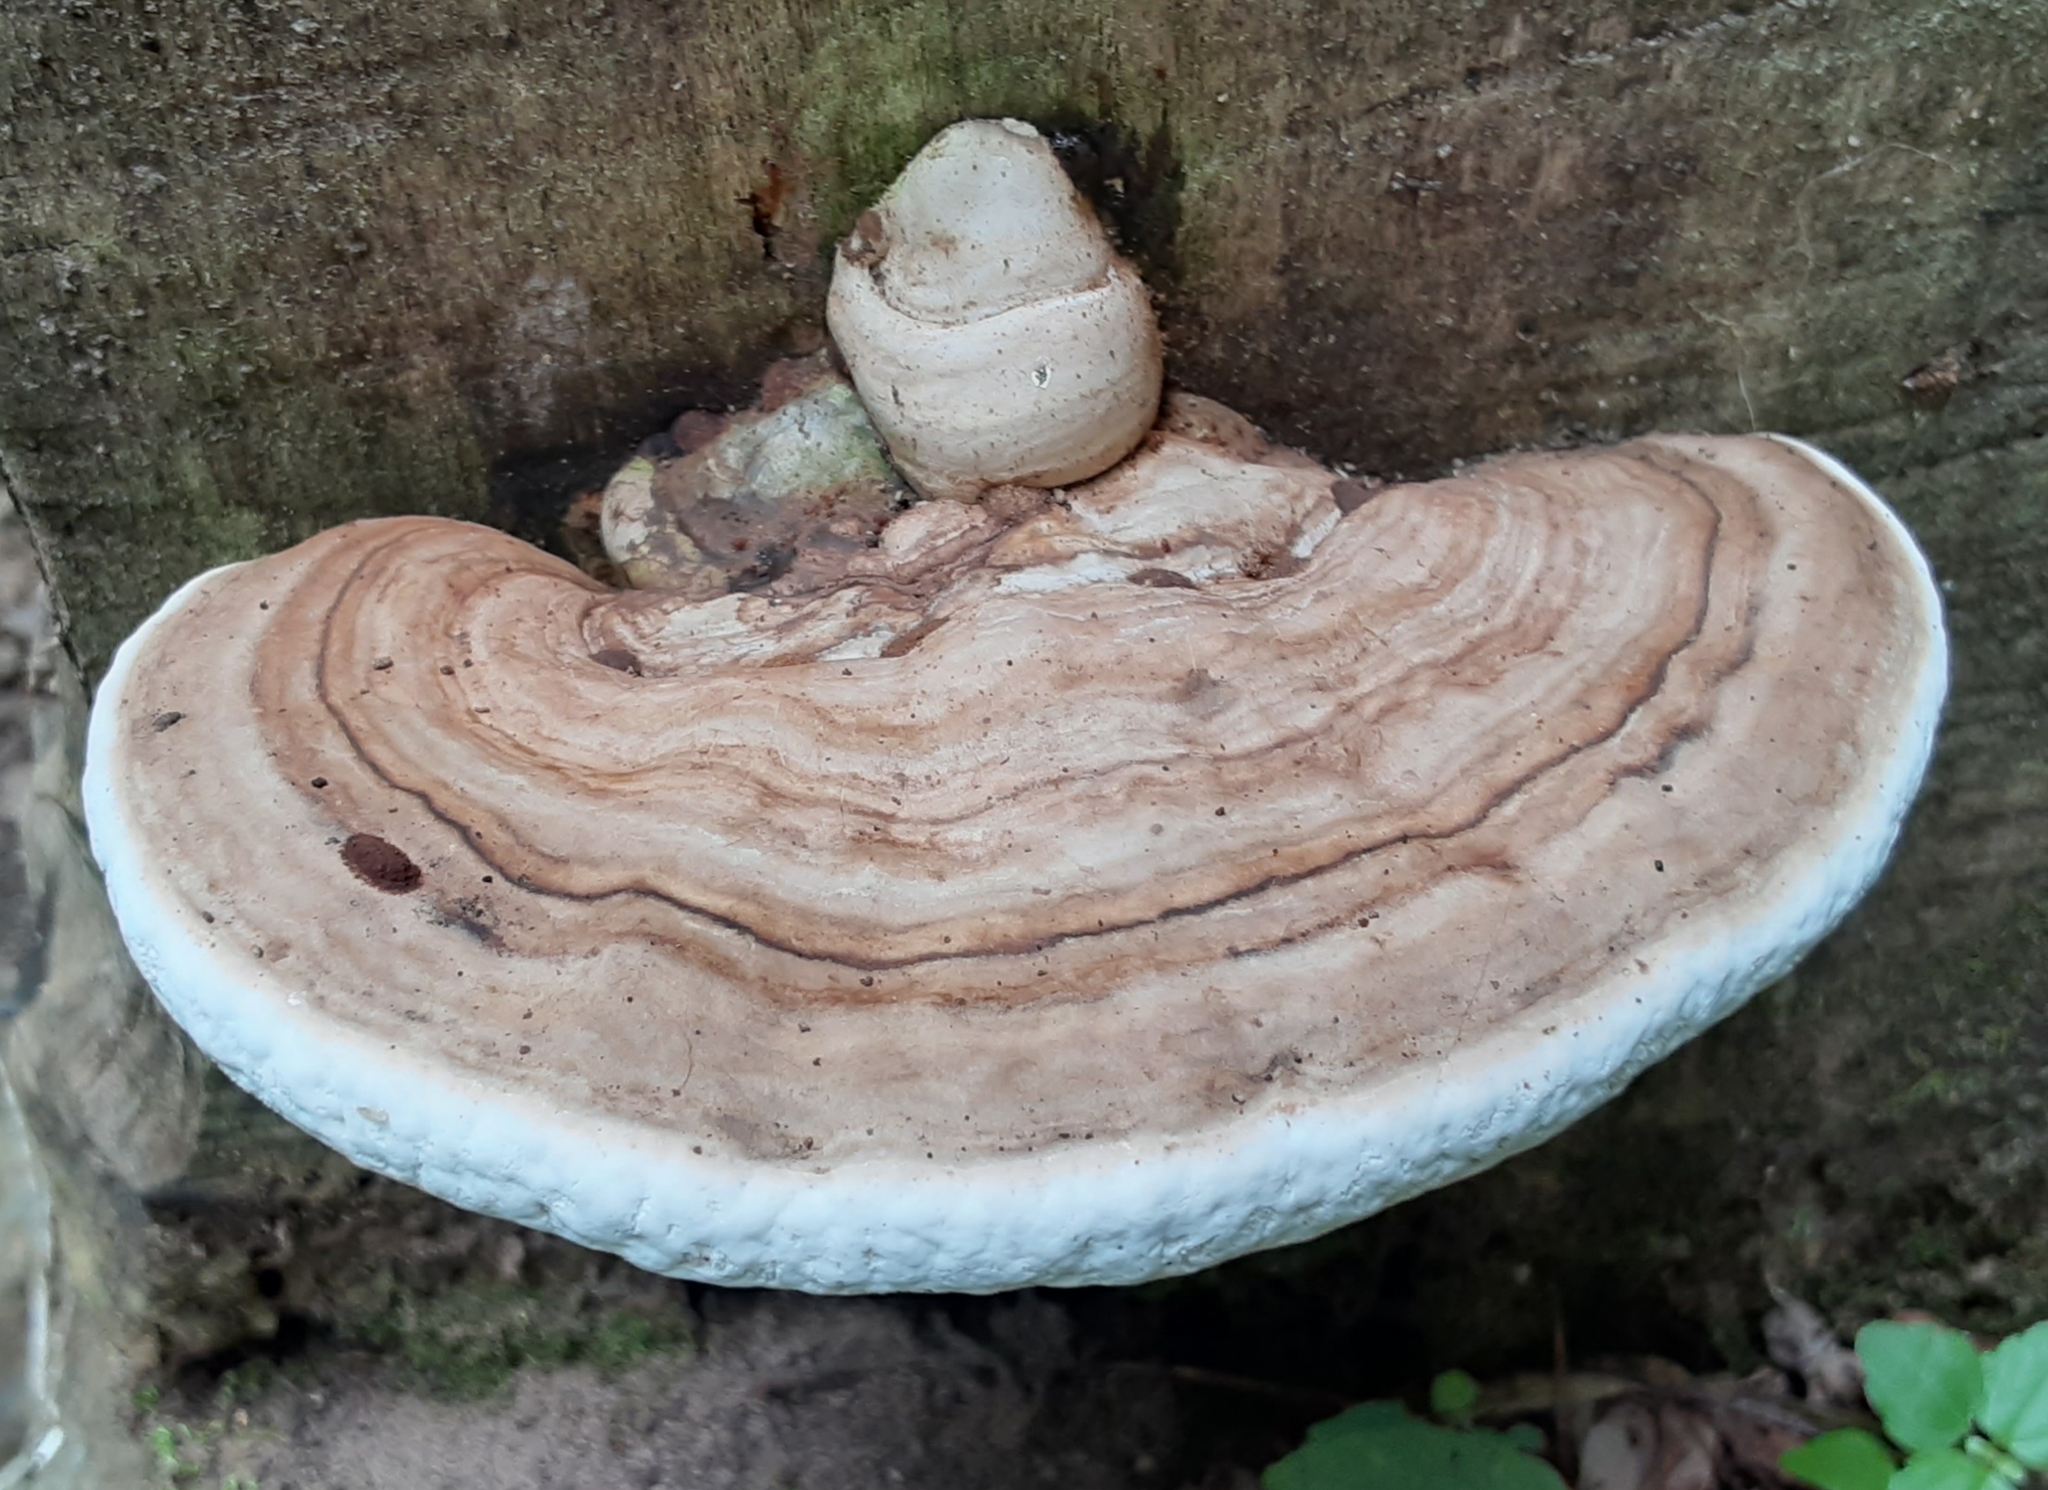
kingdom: Fungi
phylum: Basidiomycota
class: Agaricomycetes
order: Polyporales
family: Polyporaceae
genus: Ganoderma
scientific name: Ganoderma applanatum
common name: Artist's bracket
